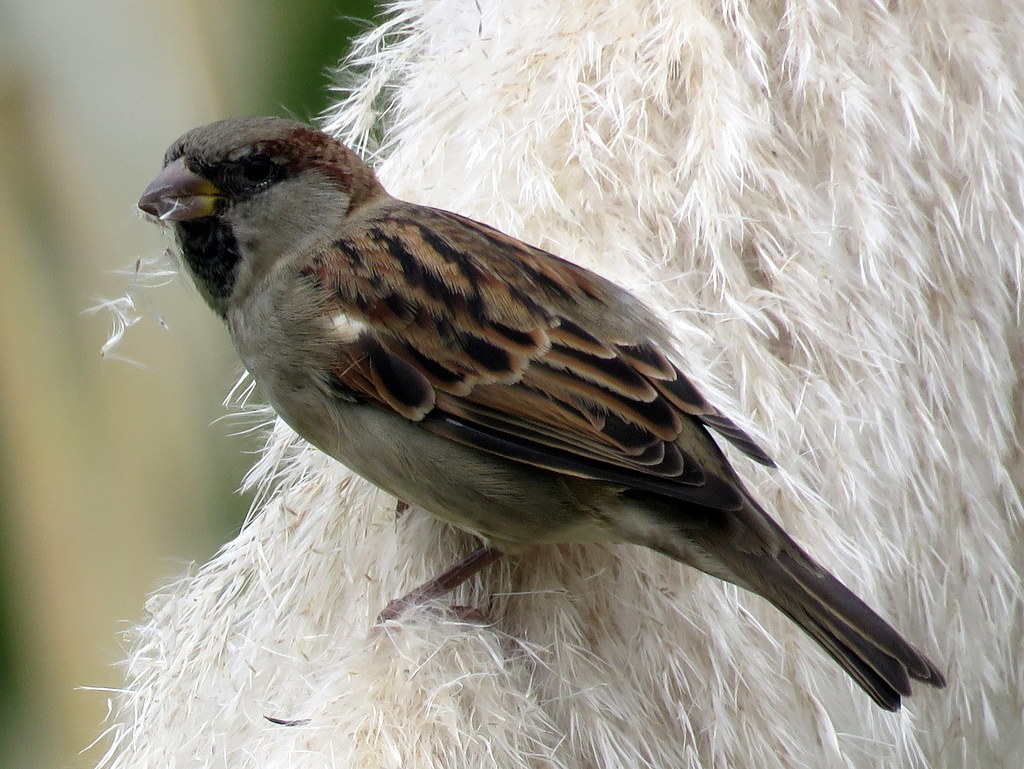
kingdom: Animalia
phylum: Chordata
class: Aves
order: Passeriformes
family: Passeridae
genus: Passer
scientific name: Passer domesticus
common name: House sparrow
